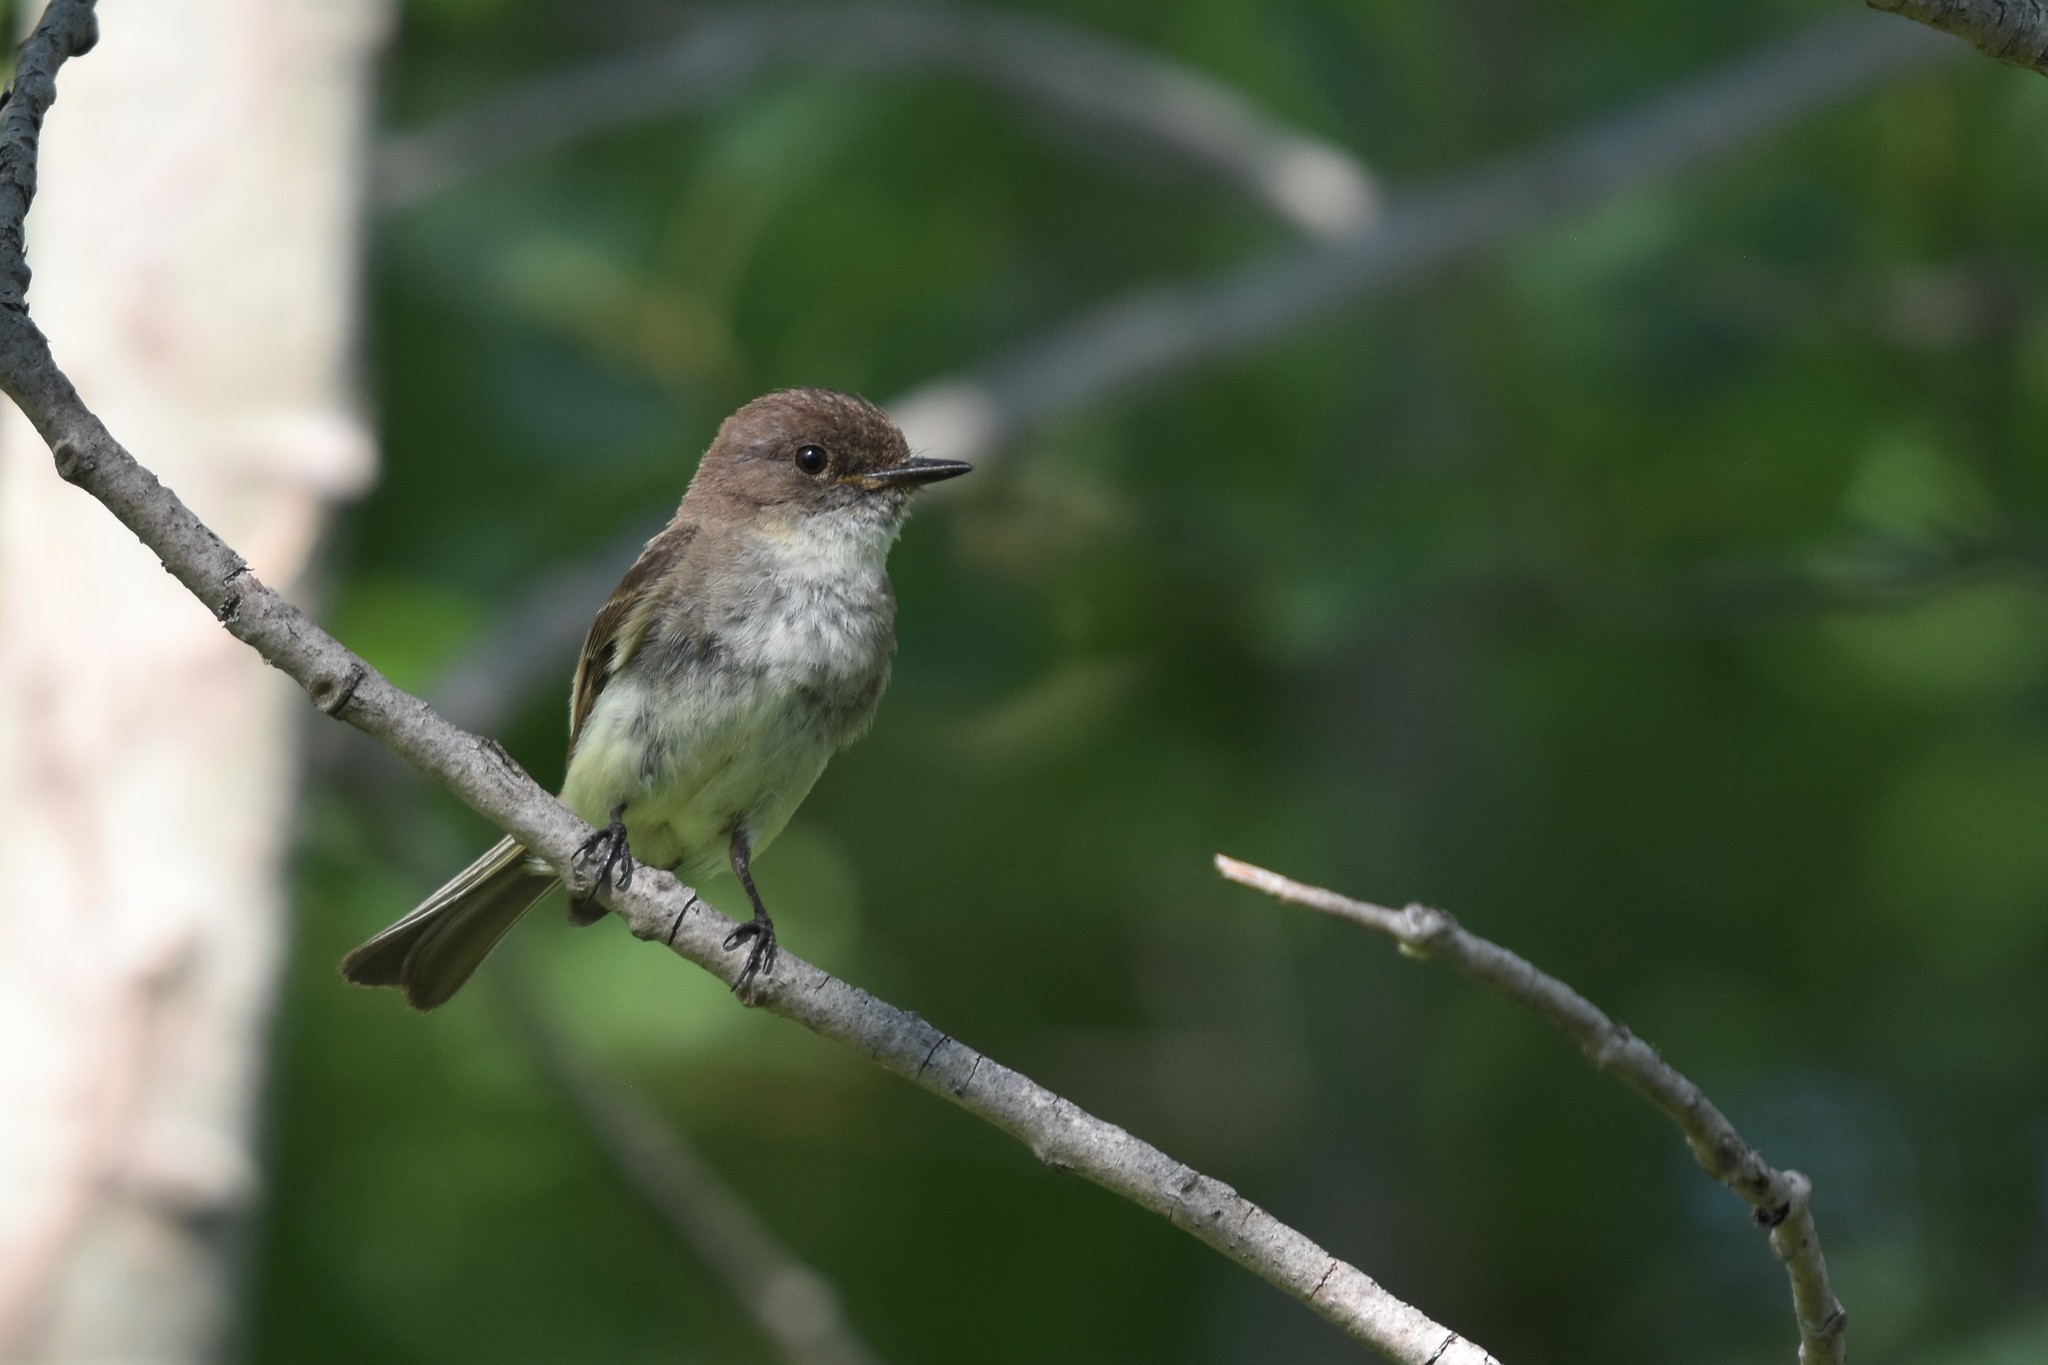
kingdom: Animalia
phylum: Chordata
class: Aves
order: Passeriformes
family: Tyrannidae
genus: Sayornis
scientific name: Sayornis phoebe
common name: Eastern phoebe
